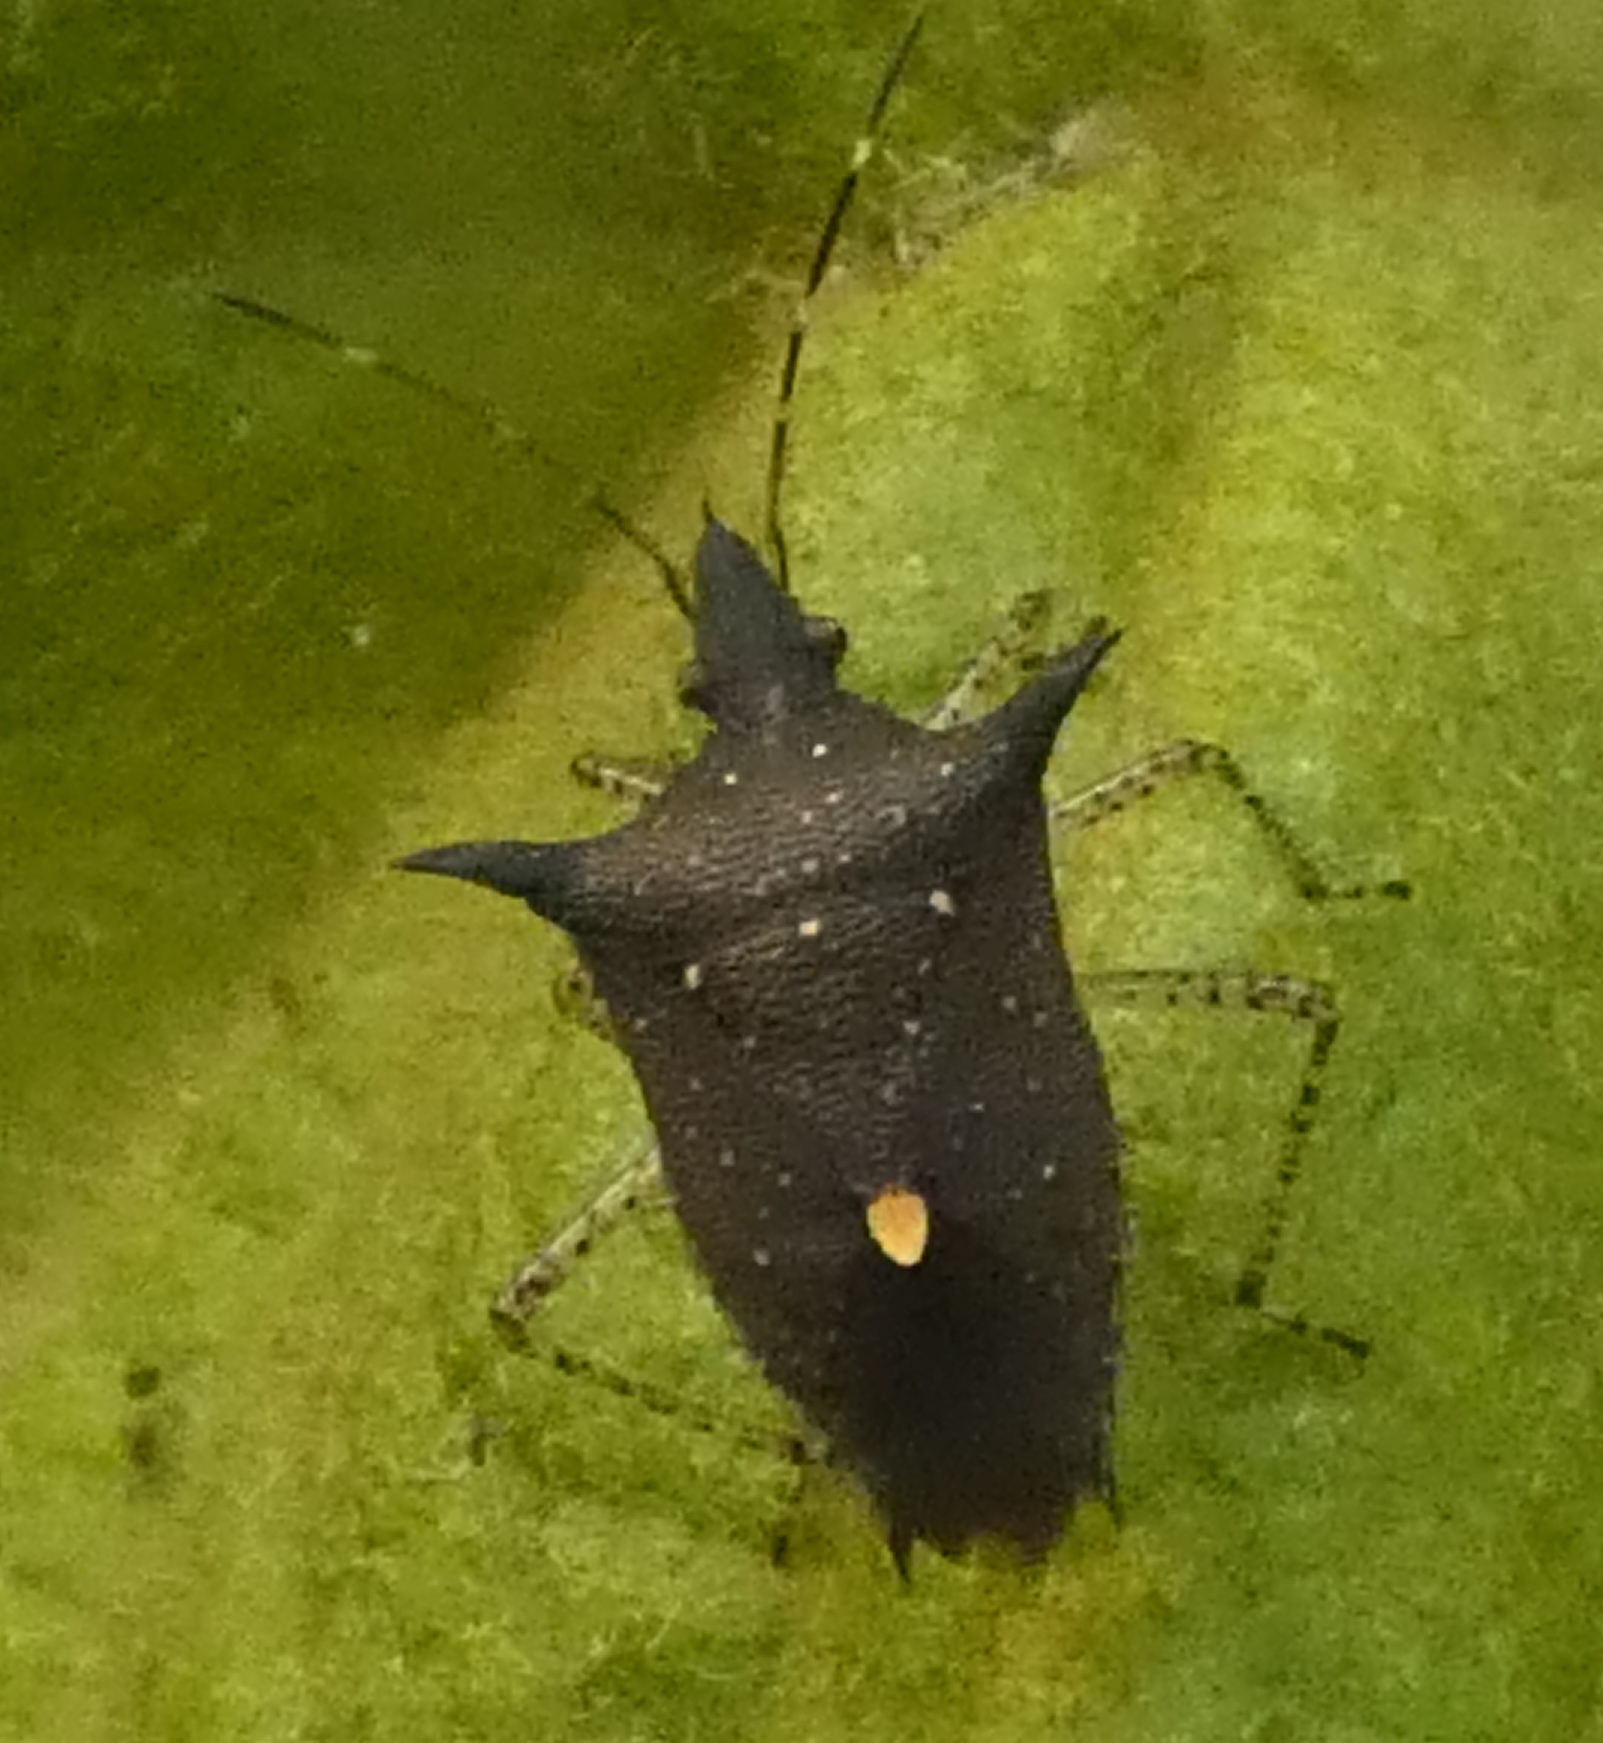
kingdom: Animalia
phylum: Arthropoda
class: Insecta
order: Hemiptera
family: Pentatomidae
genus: Proxys
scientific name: Proxys albopunctulatus
